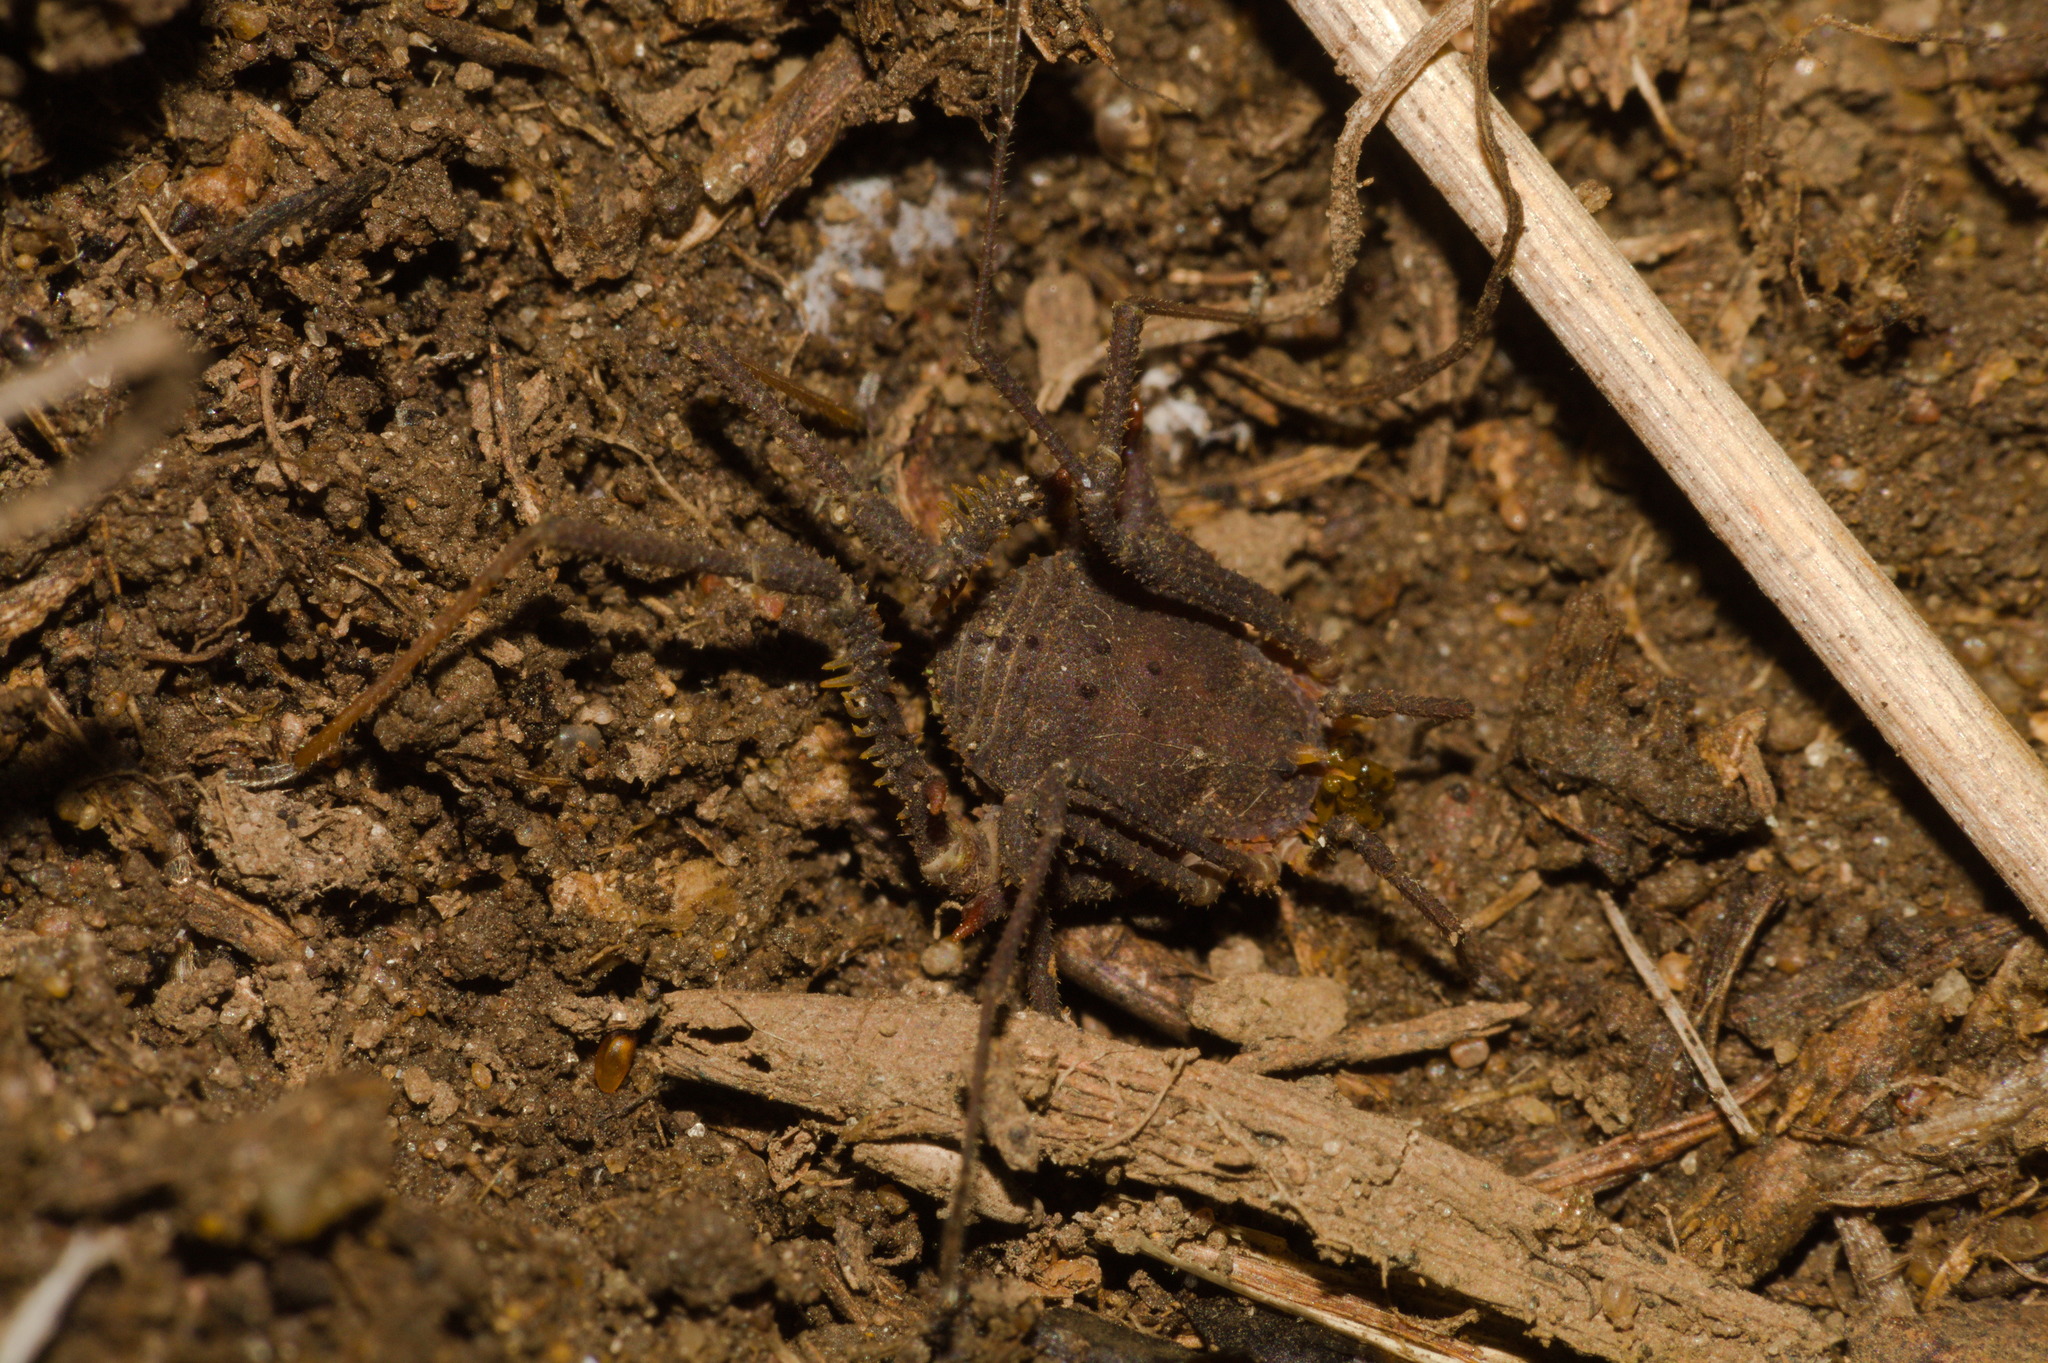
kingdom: Animalia
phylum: Arthropoda
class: Arachnida
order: Opiliones
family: Gonyleptidae
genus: Hernandaria
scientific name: Hernandaria armatifrons
